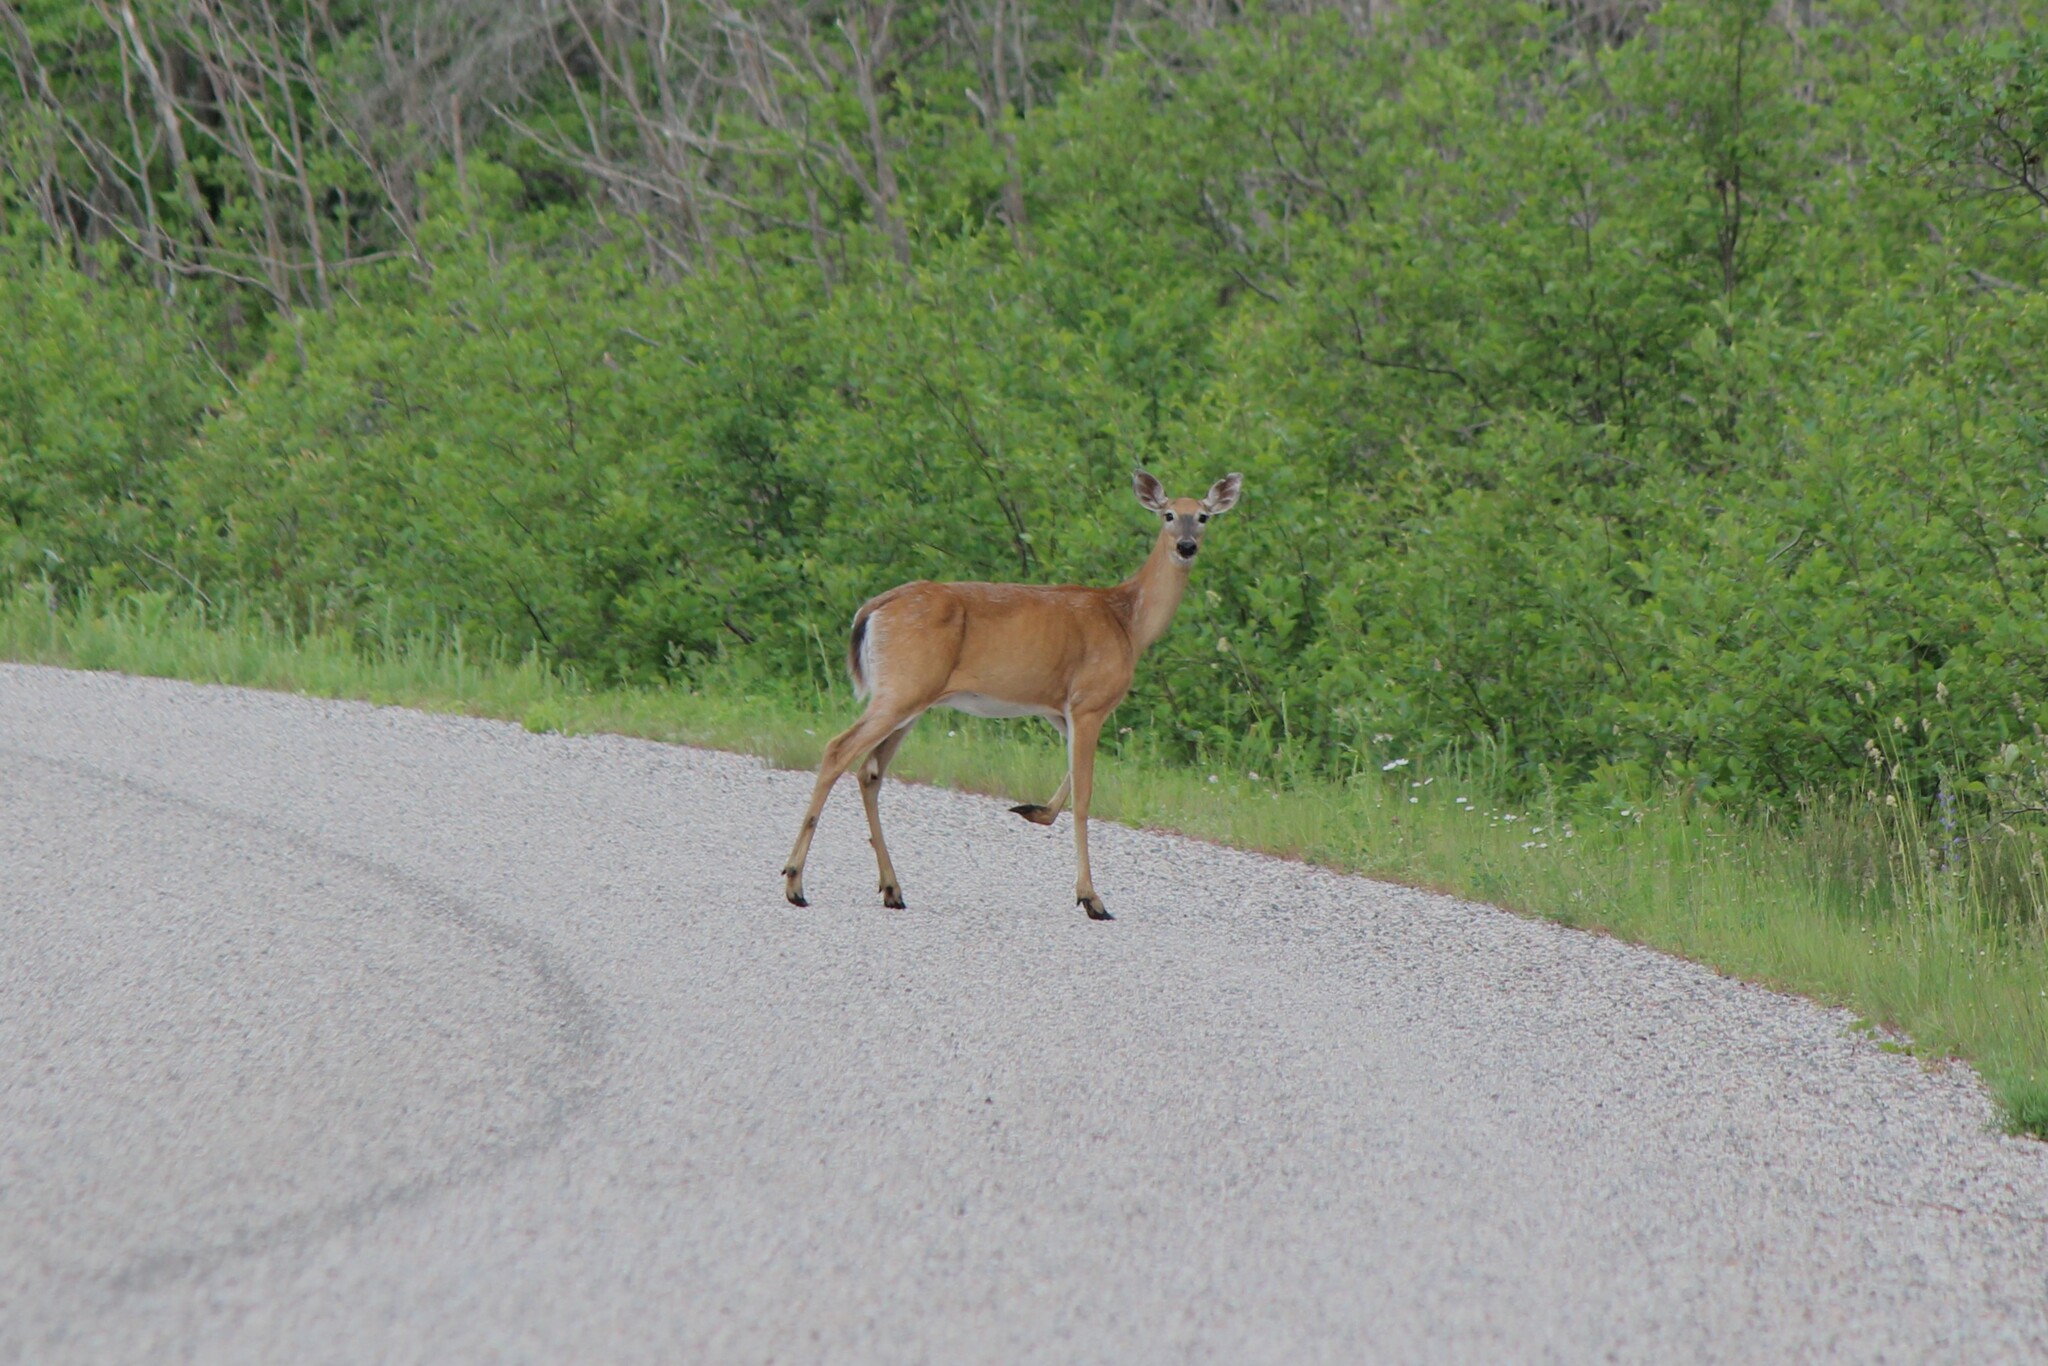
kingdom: Animalia
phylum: Chordata
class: Mammalia
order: Artiodactyla
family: Cervidae
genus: Odocoileus
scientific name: Odocoileus virginianus
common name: White-tailed deer
